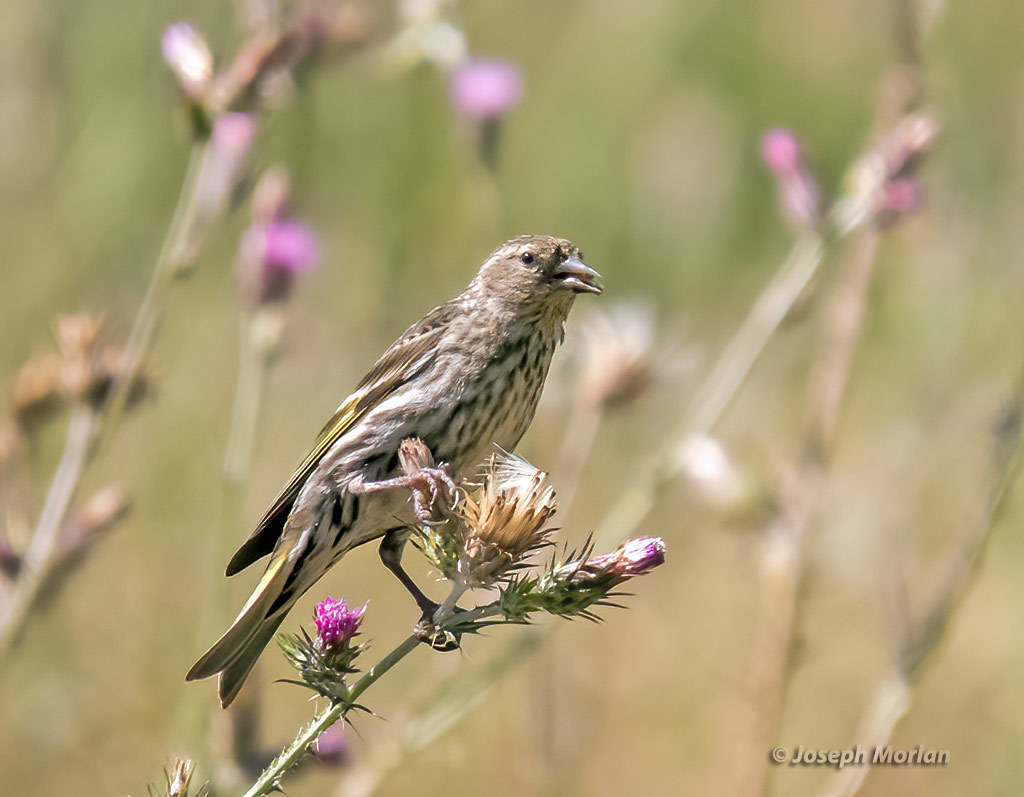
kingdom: Animalia
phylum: Chordata
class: Aves
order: Passeriformes
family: Fringillidae
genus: Spinus
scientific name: Spinus pinus
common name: Pine siskin
